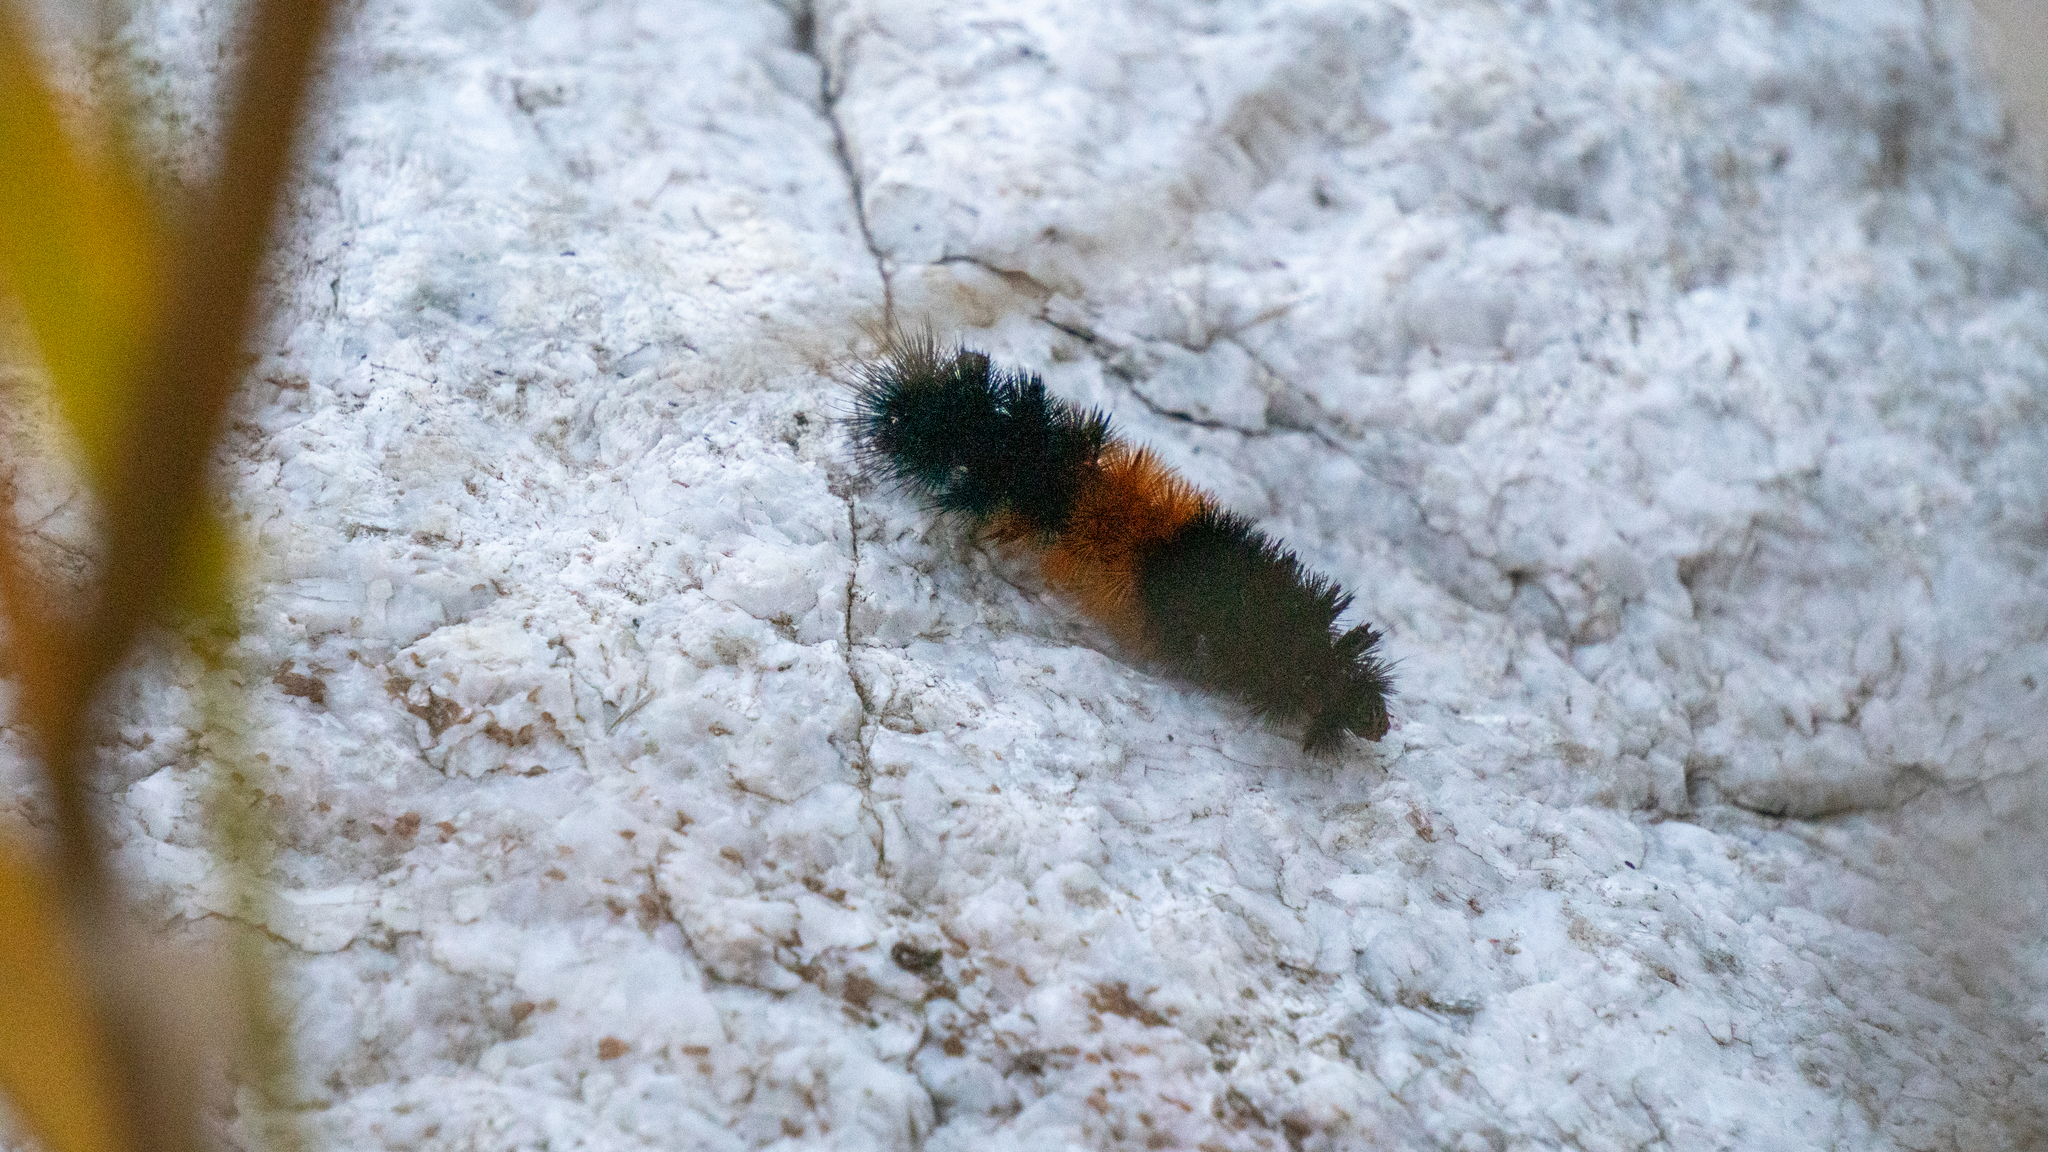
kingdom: Animalia
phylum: Arthropoda
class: Insecta
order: Lepidoptera
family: Erebidae
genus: Pyrrharctia
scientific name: Pyrrharctia isabella
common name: Isabella tiger moth
